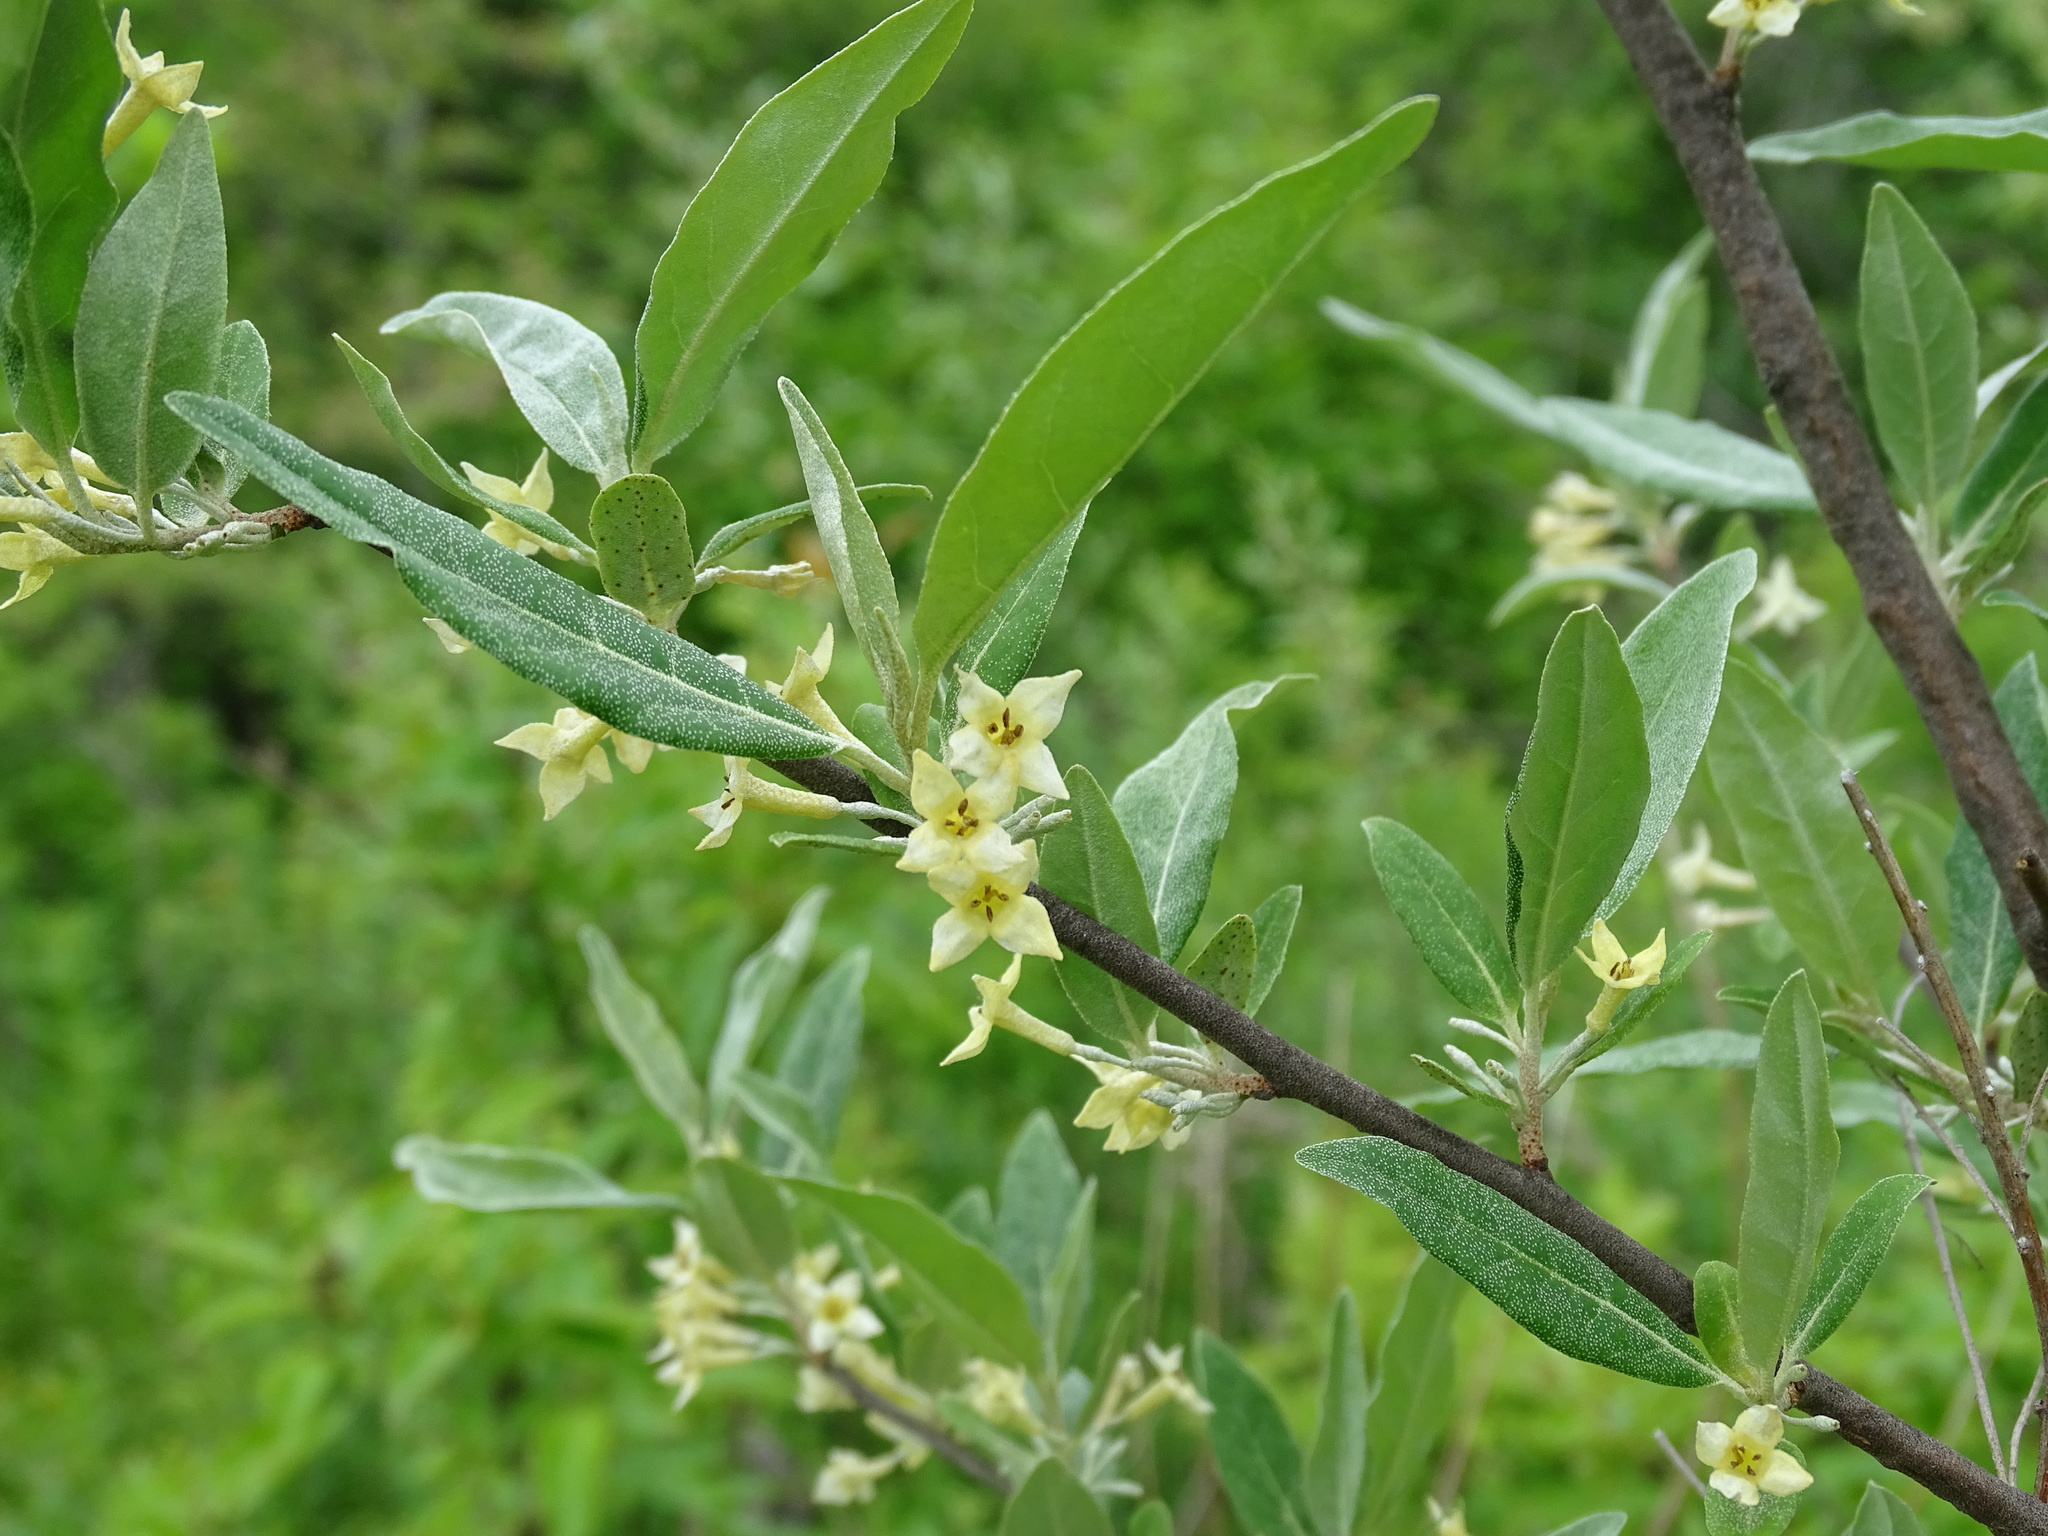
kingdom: Plantae
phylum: Tracheophyta
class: Magnoliopsida
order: Rosales
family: Elaeagnaceae
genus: Elaeagnus
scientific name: Elaeagnus umbellata
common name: Autumn olive
